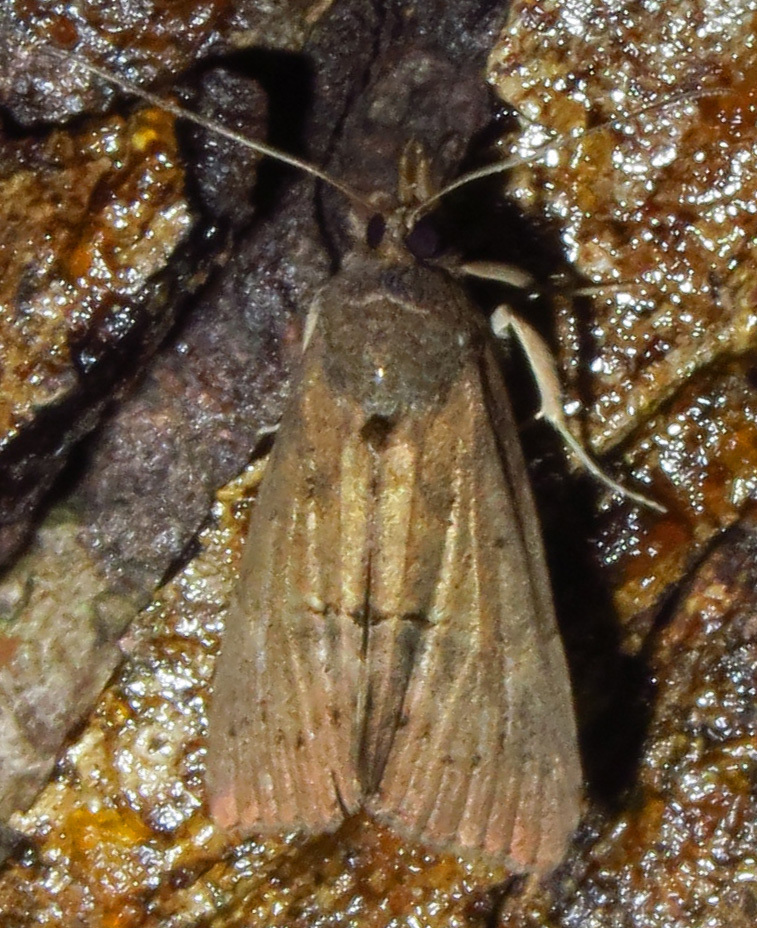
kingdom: Animalia
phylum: Arthropoda
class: Insecta
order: Lepidoptera
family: Erebidae
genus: Hypena
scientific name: Hypena scabra
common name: Green cloverworm
